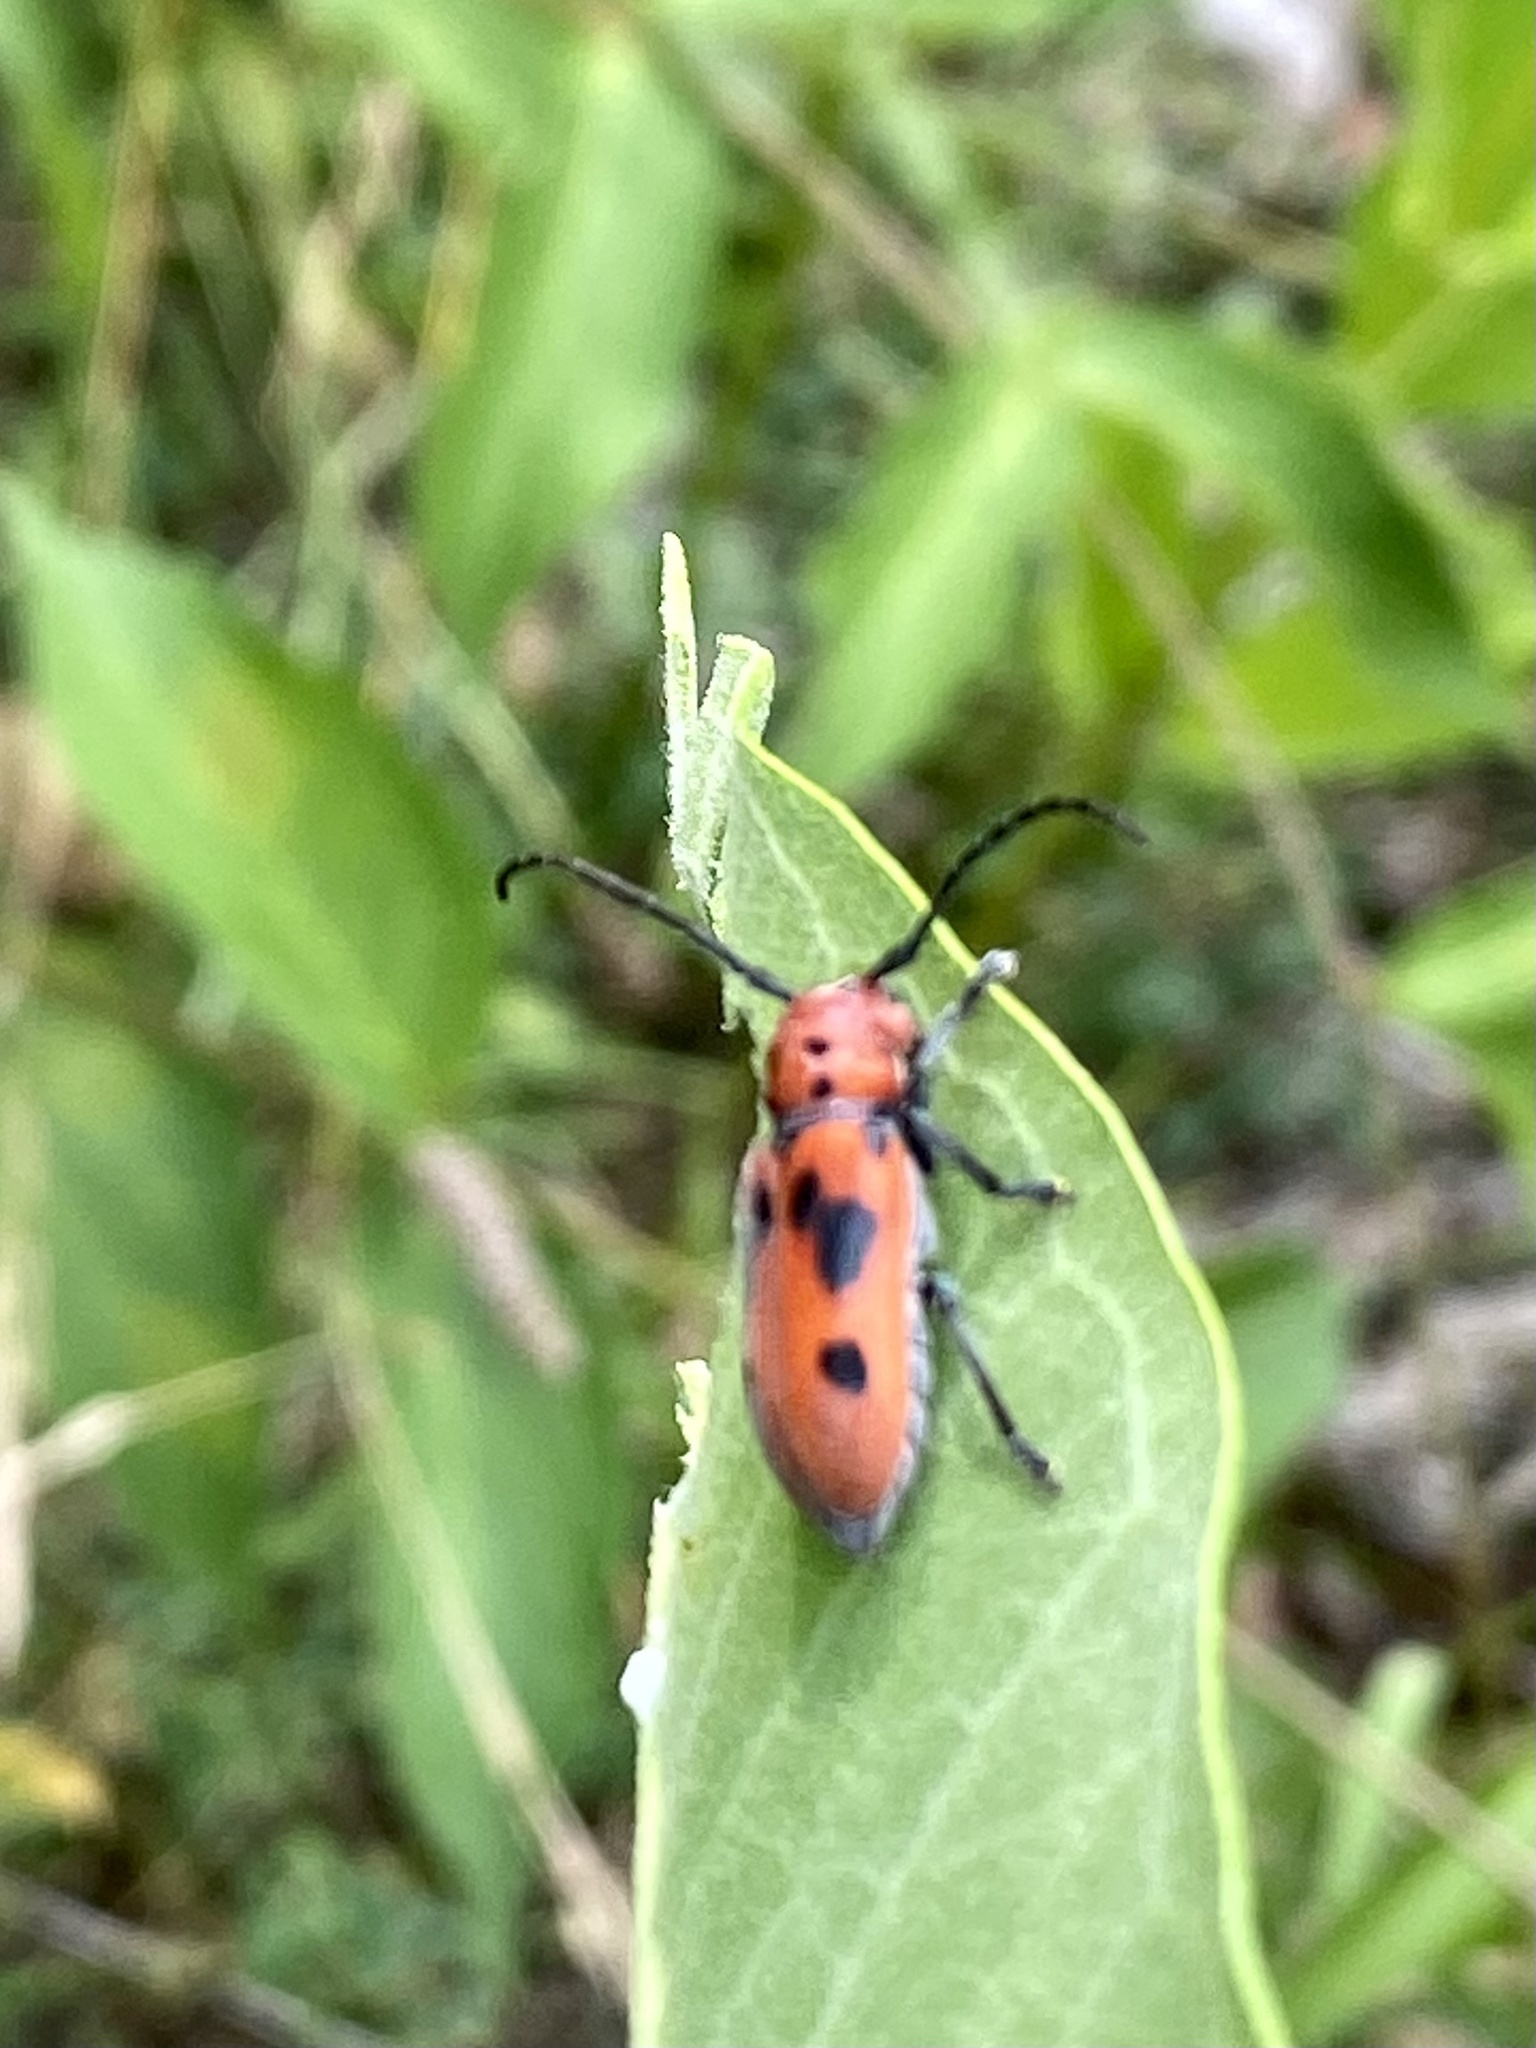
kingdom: Animalia
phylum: Arthropoda
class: Insecta
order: Coleoptera
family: Cerambycidae
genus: Tetraopes
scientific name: Tetraopes tetrophthalmus
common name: Red milkweed beetle
